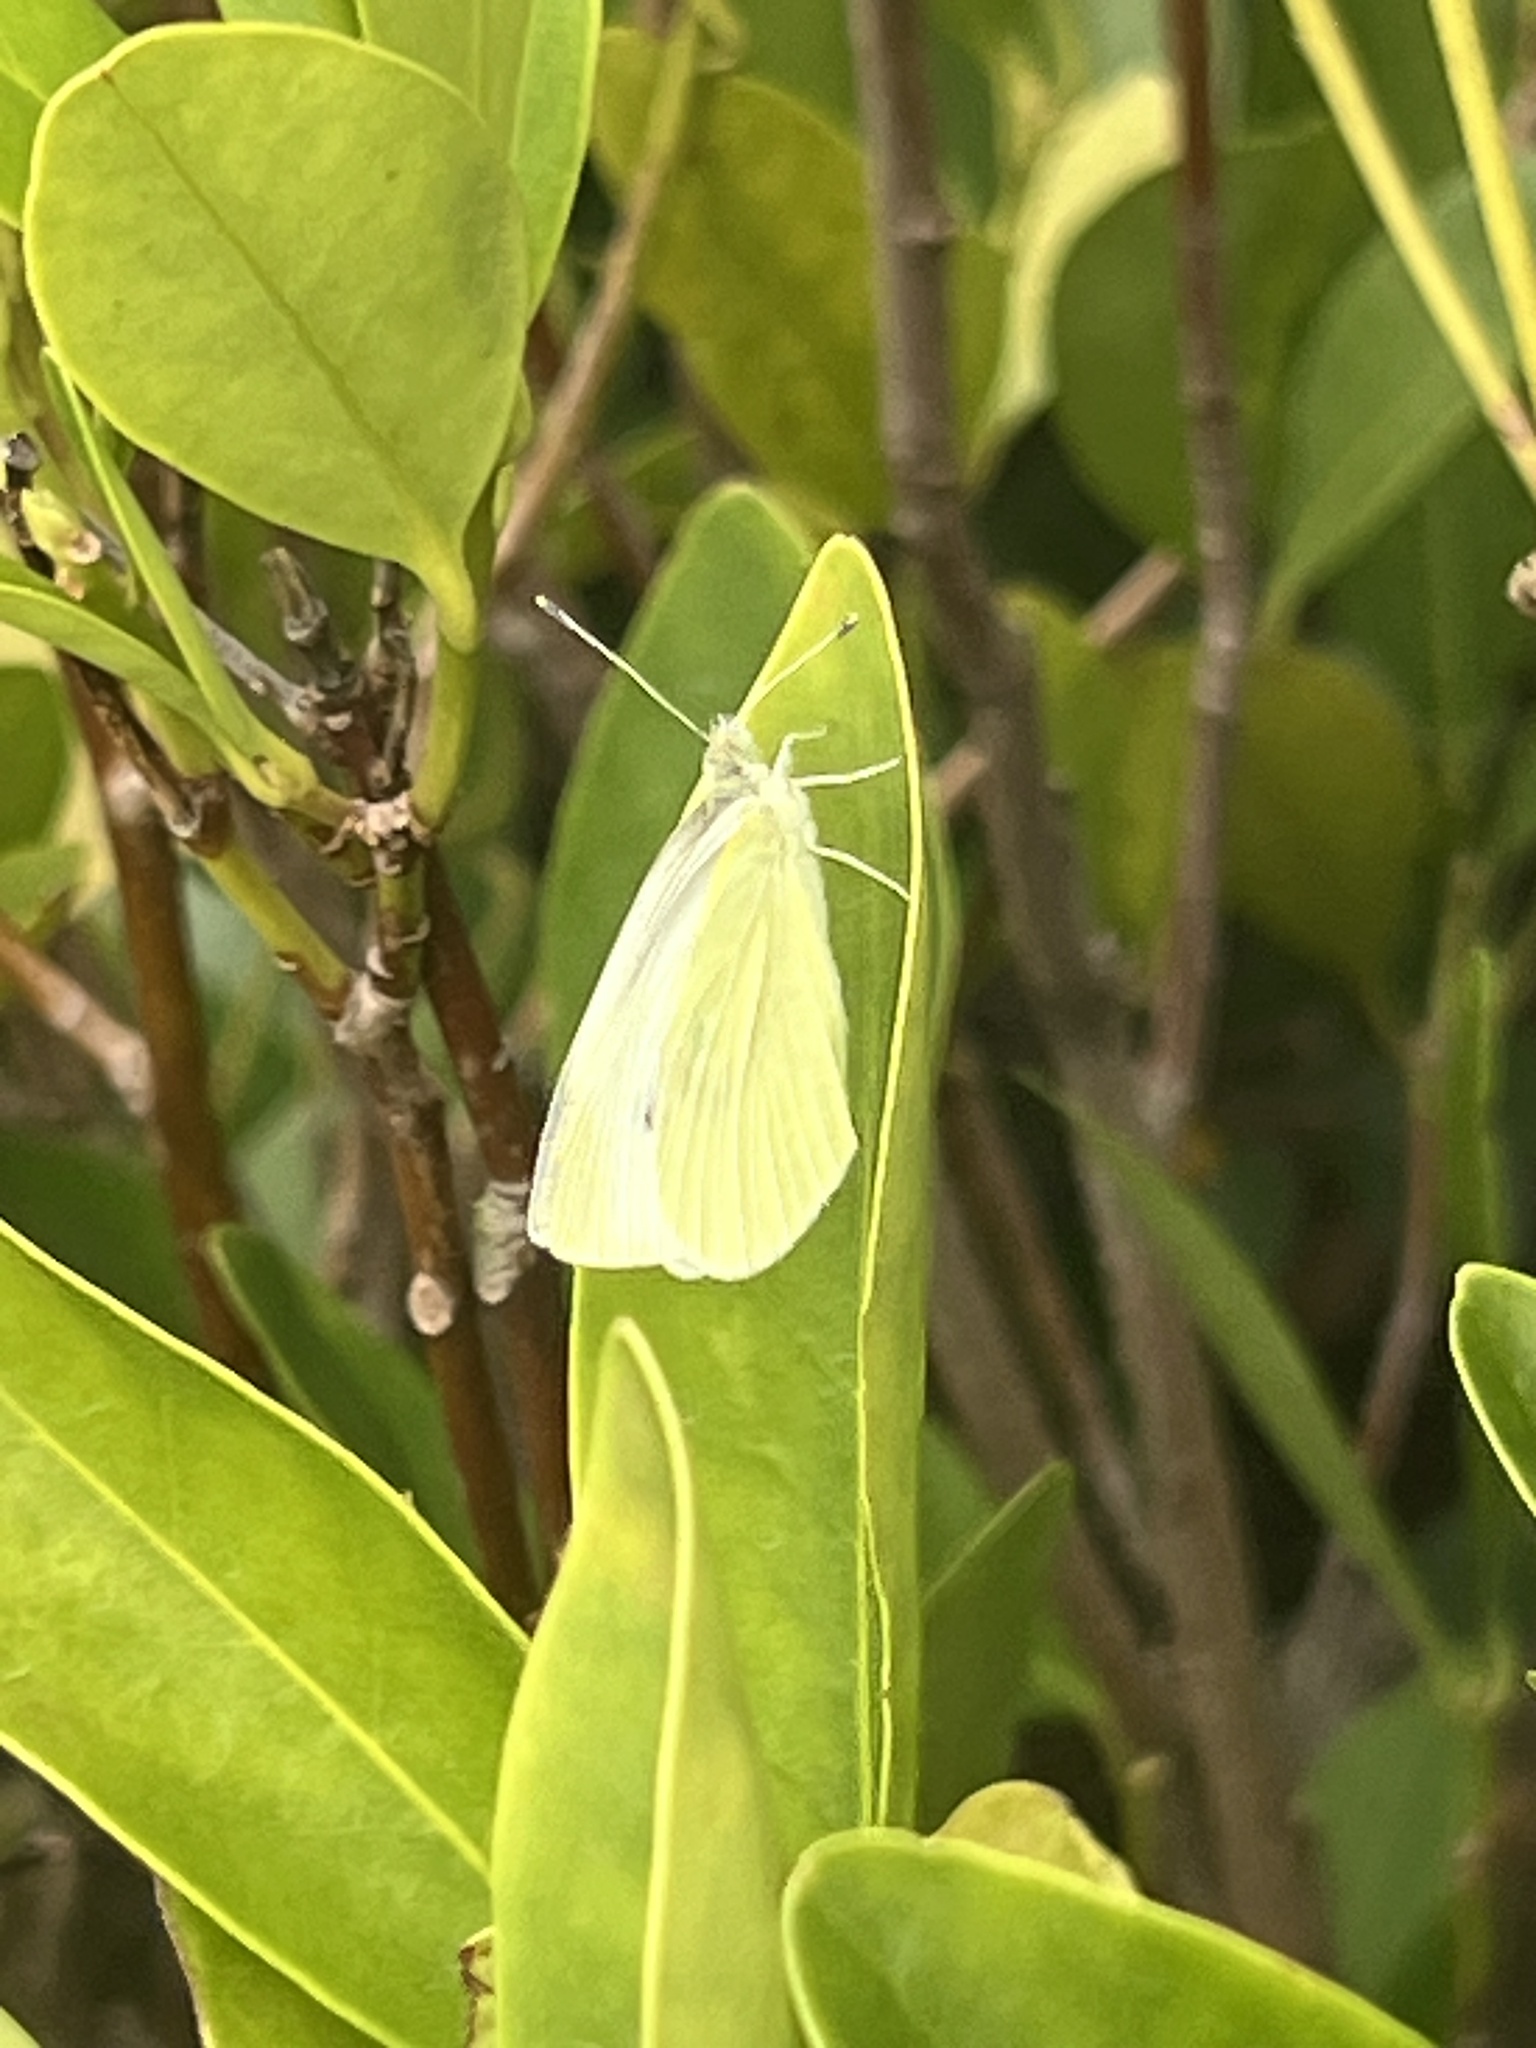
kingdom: Animalia
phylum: Arthropoda
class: Insecta
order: Lepidoptera
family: Pieridae
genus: Pieris
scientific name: Pieris rapae
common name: Small white
